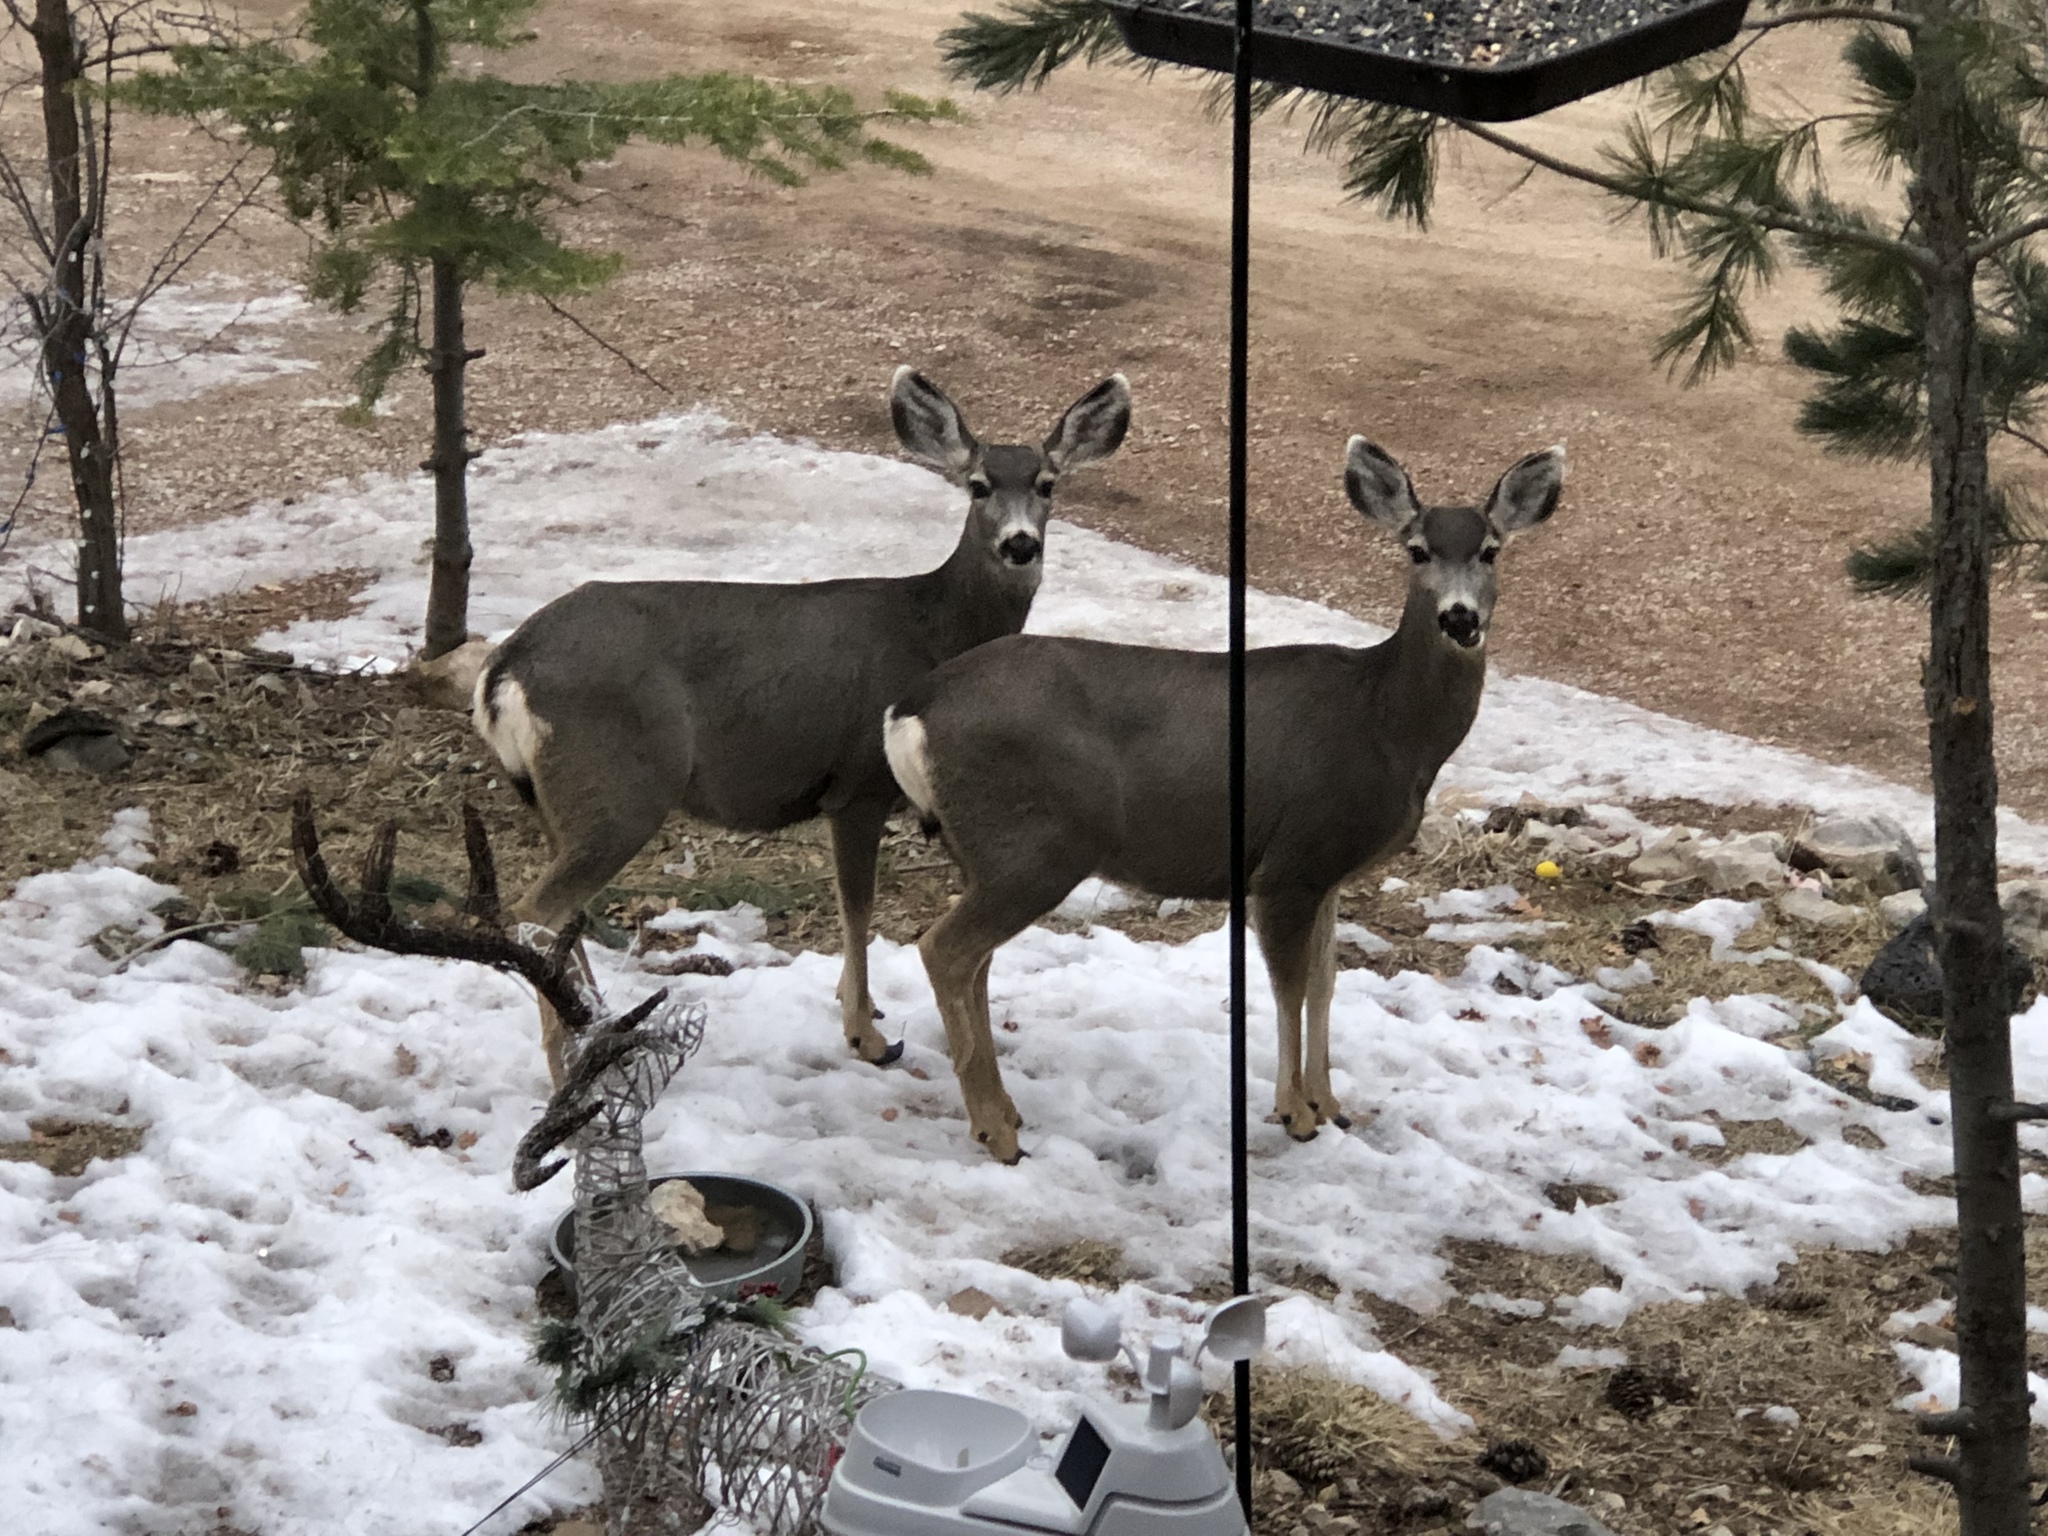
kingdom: Animalia
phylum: Chordata
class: Mammalia
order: Artiodactyla
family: Cervidae
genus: Odocoileus
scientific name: Odocoileus hemionus
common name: Mule deer
